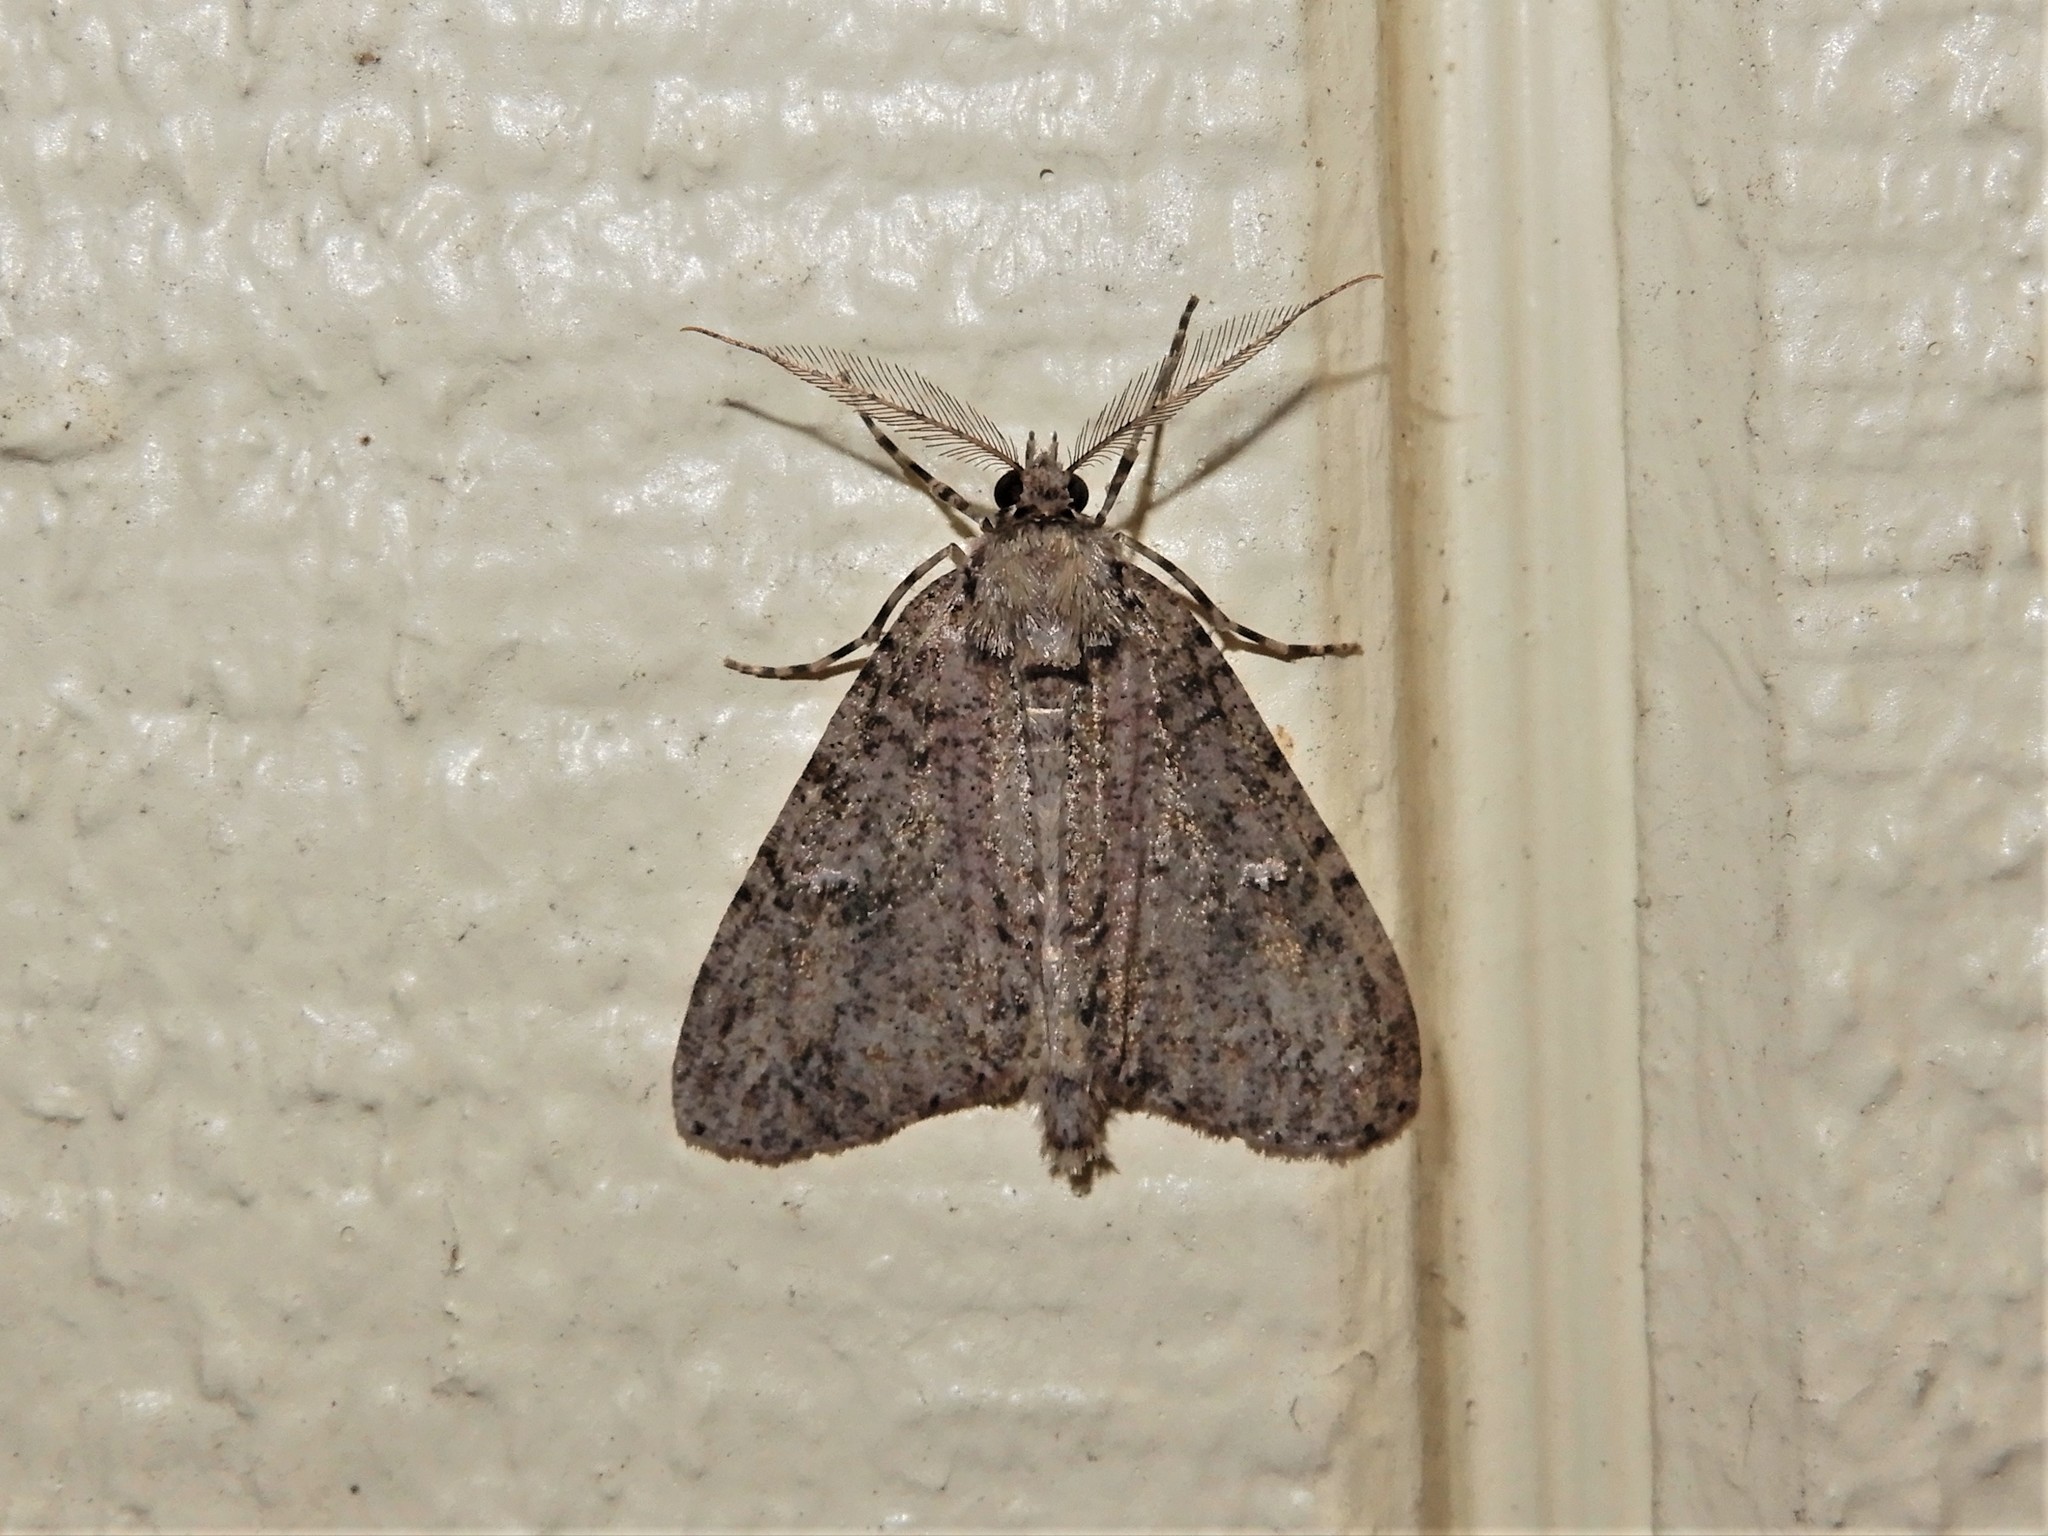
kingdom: Animalia
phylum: Arthropoda
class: Insecta
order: Lepidoptera
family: Geometridae
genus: Pseudocoremia
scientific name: Pseudocoremia suavis
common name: Common forest looper
